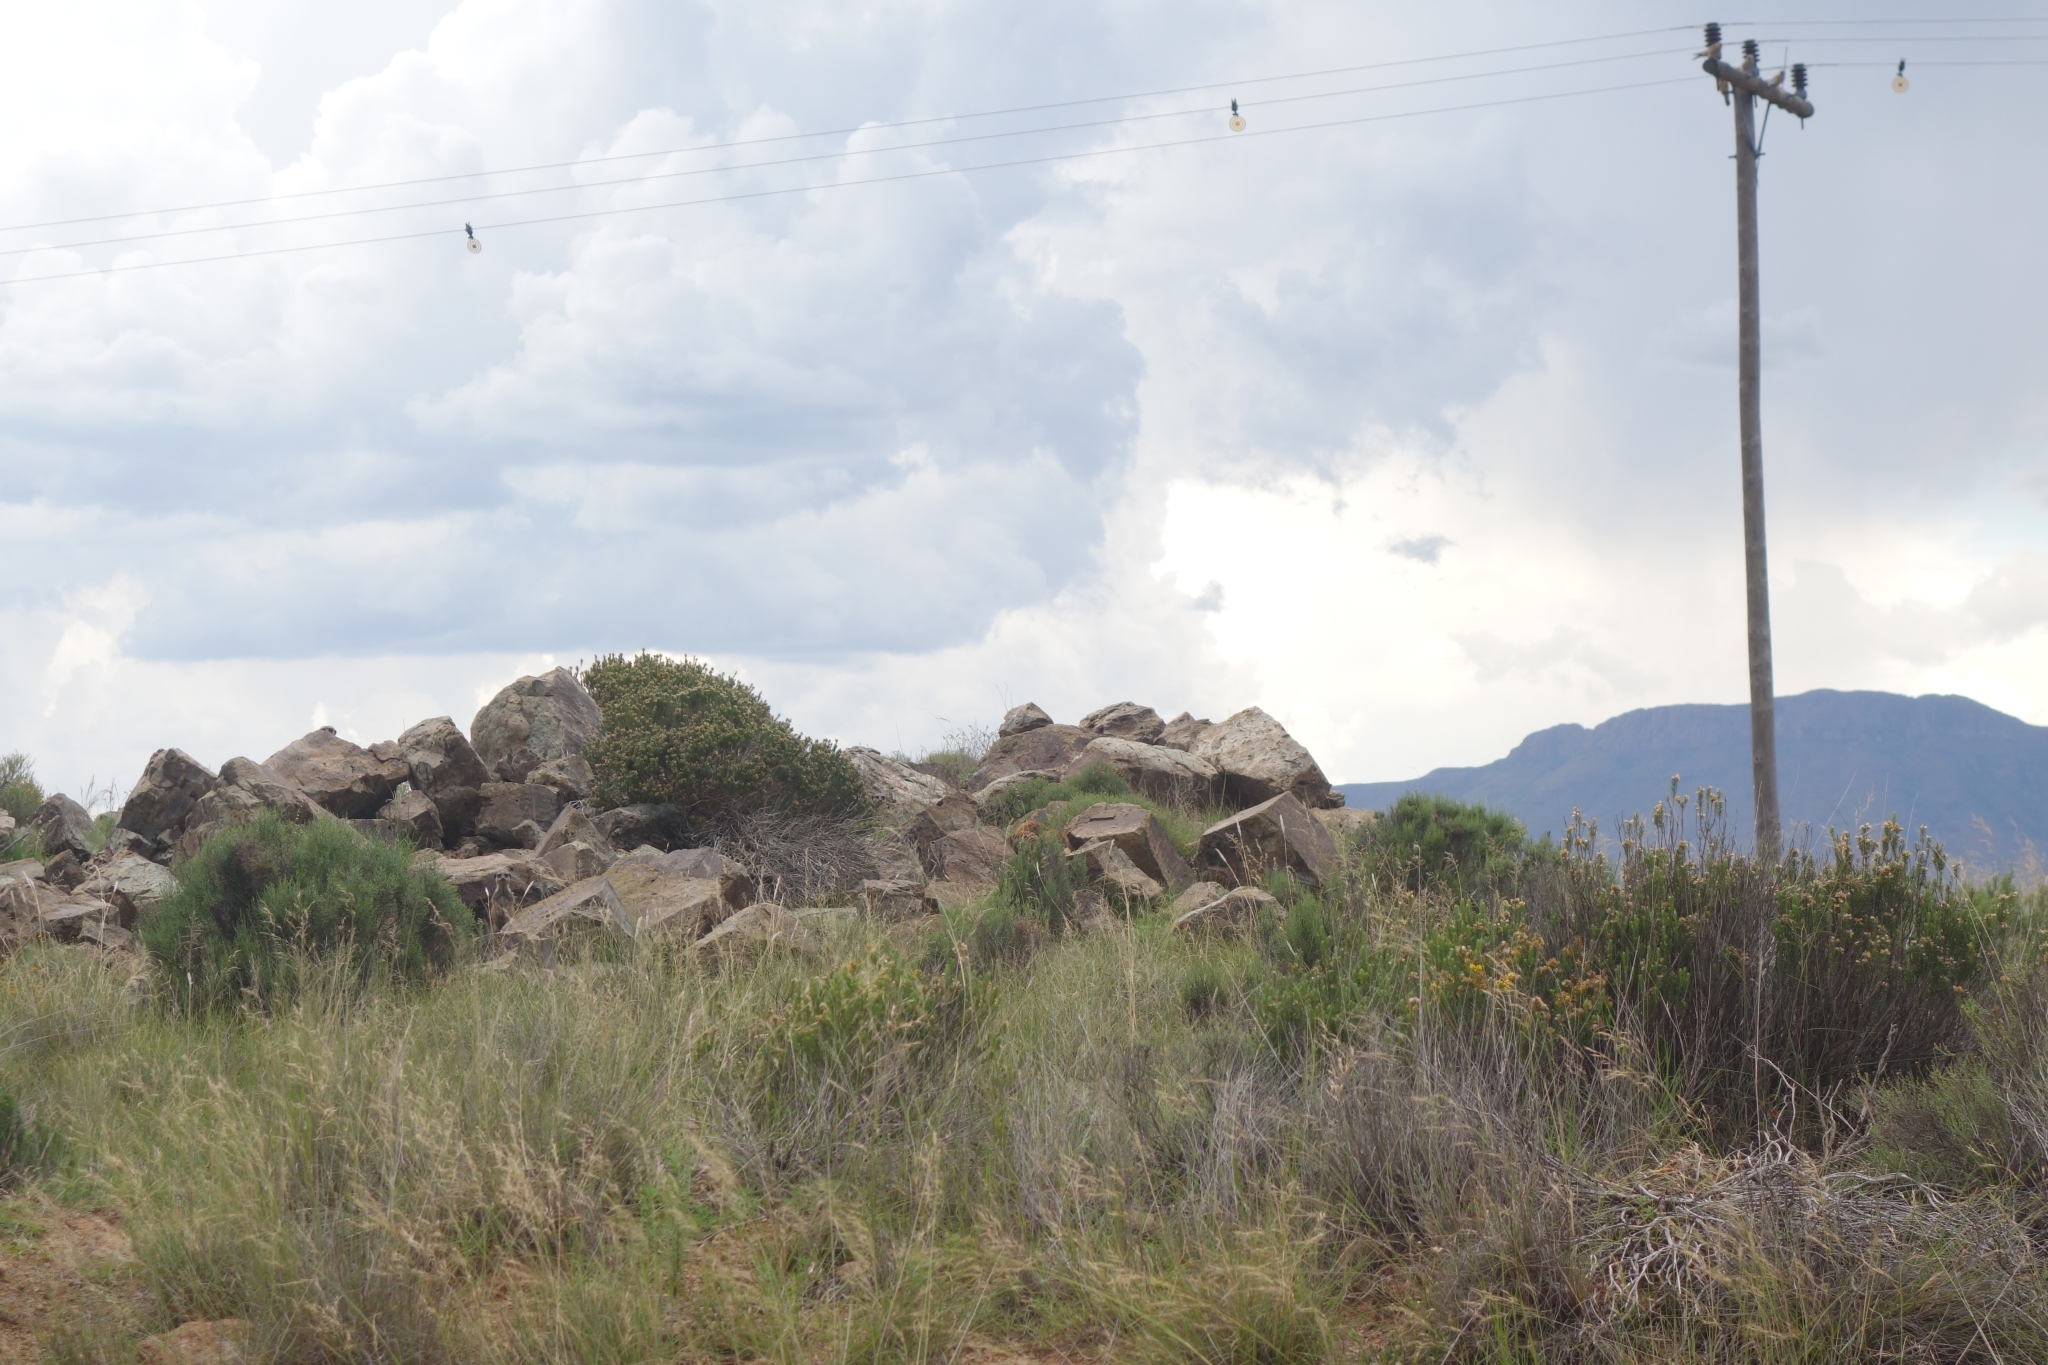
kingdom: Animalia
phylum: Chordata
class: Mammalia
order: Carnivora
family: Herpestidae
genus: Suricata
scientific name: Suricata suricatta
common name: Meerkat
